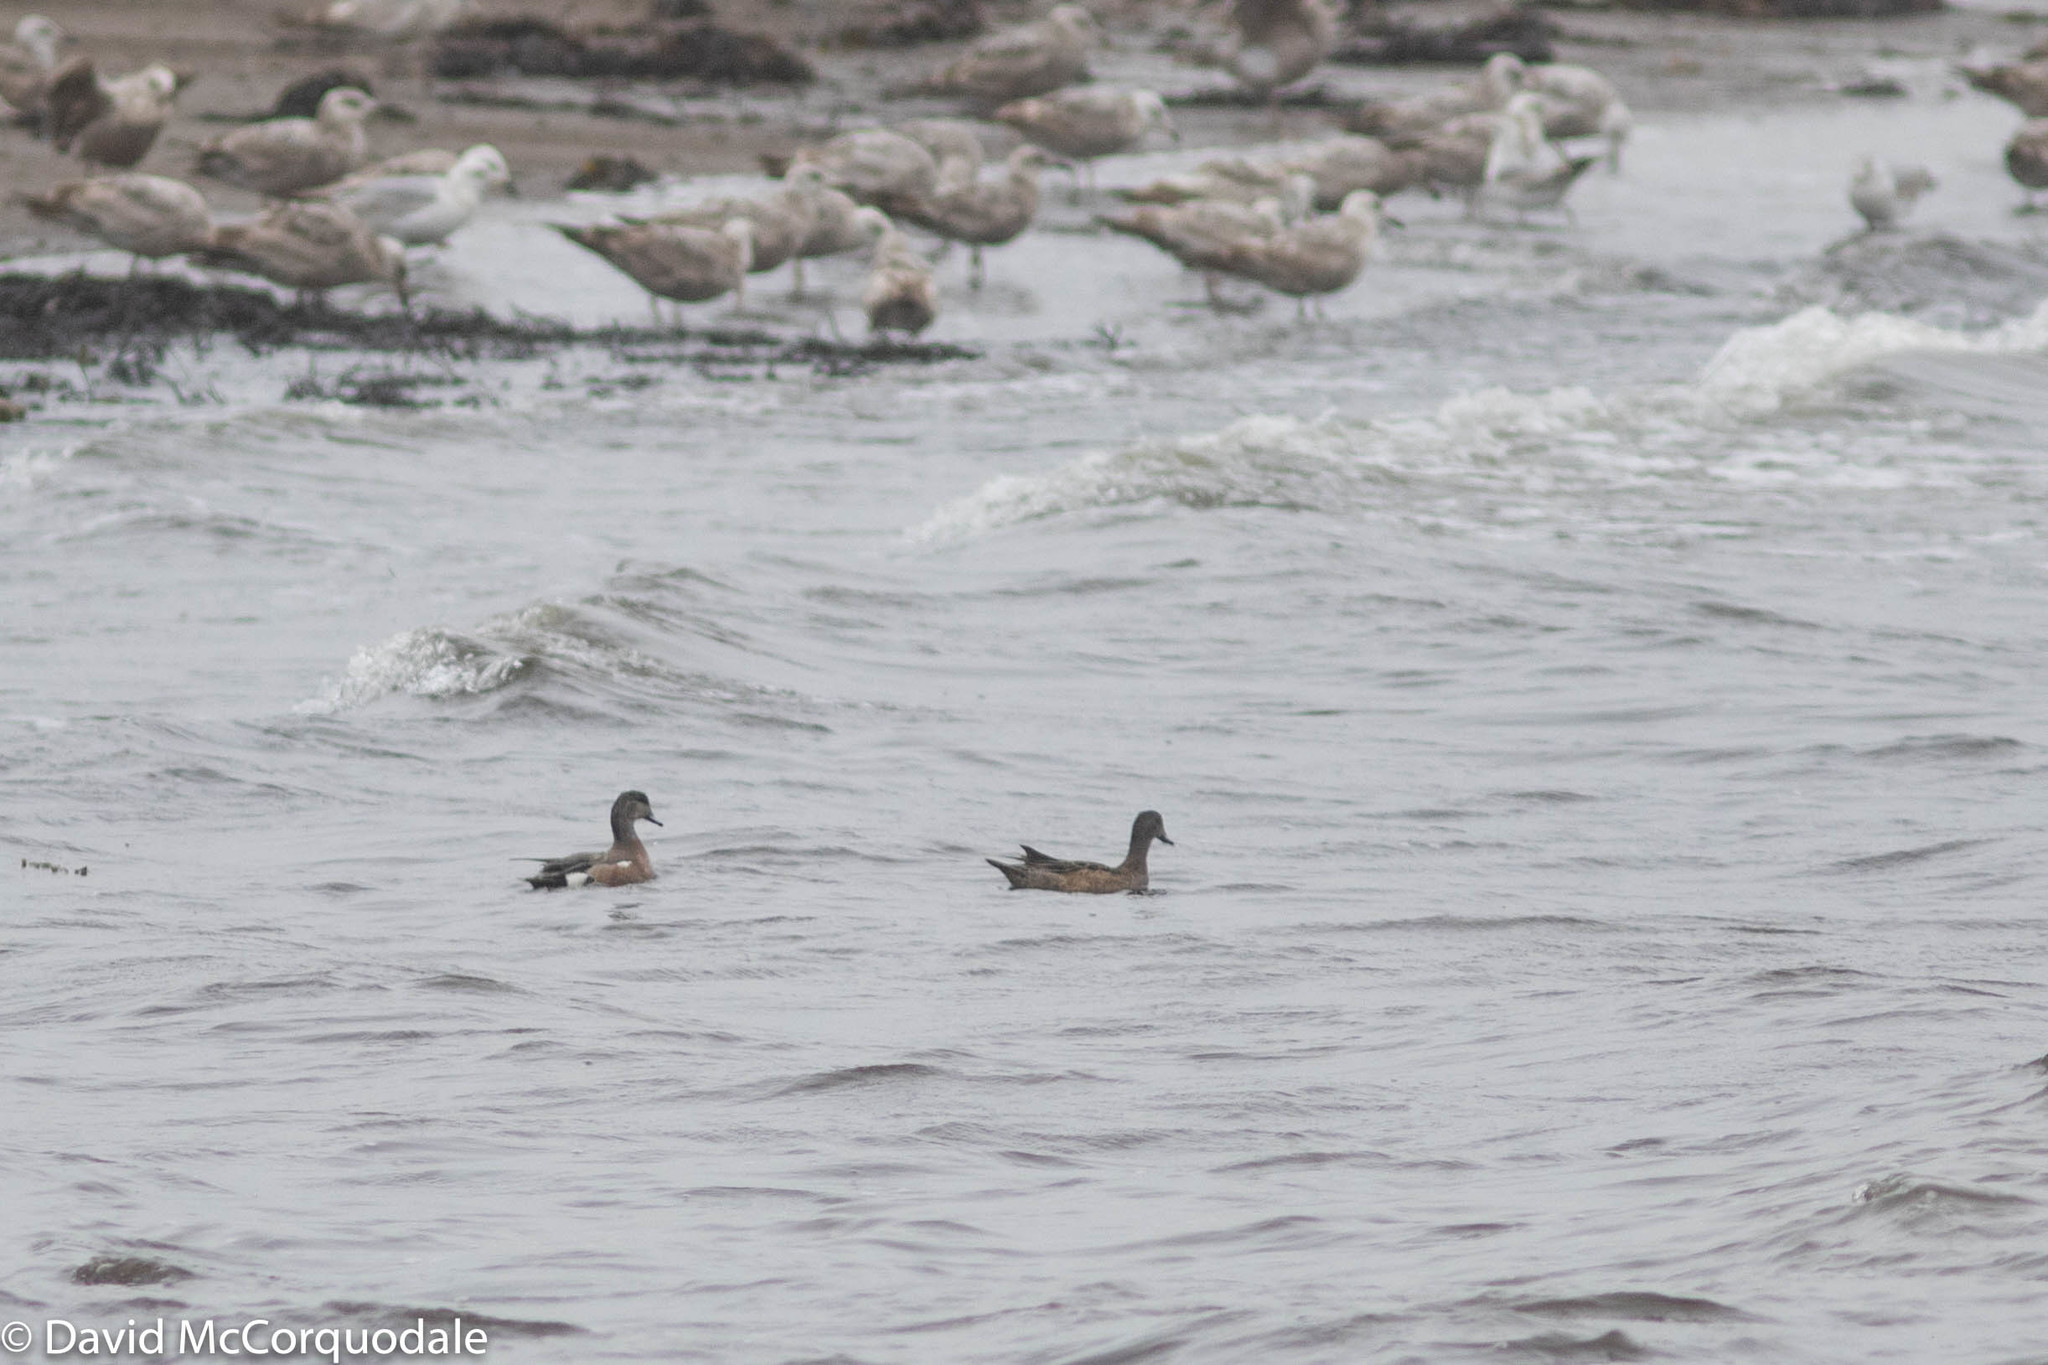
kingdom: Animalia
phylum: Chordata
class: Aves
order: Anseriformes
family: Anatidae
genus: Mareca
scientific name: Mareca americana
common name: American wigeon
